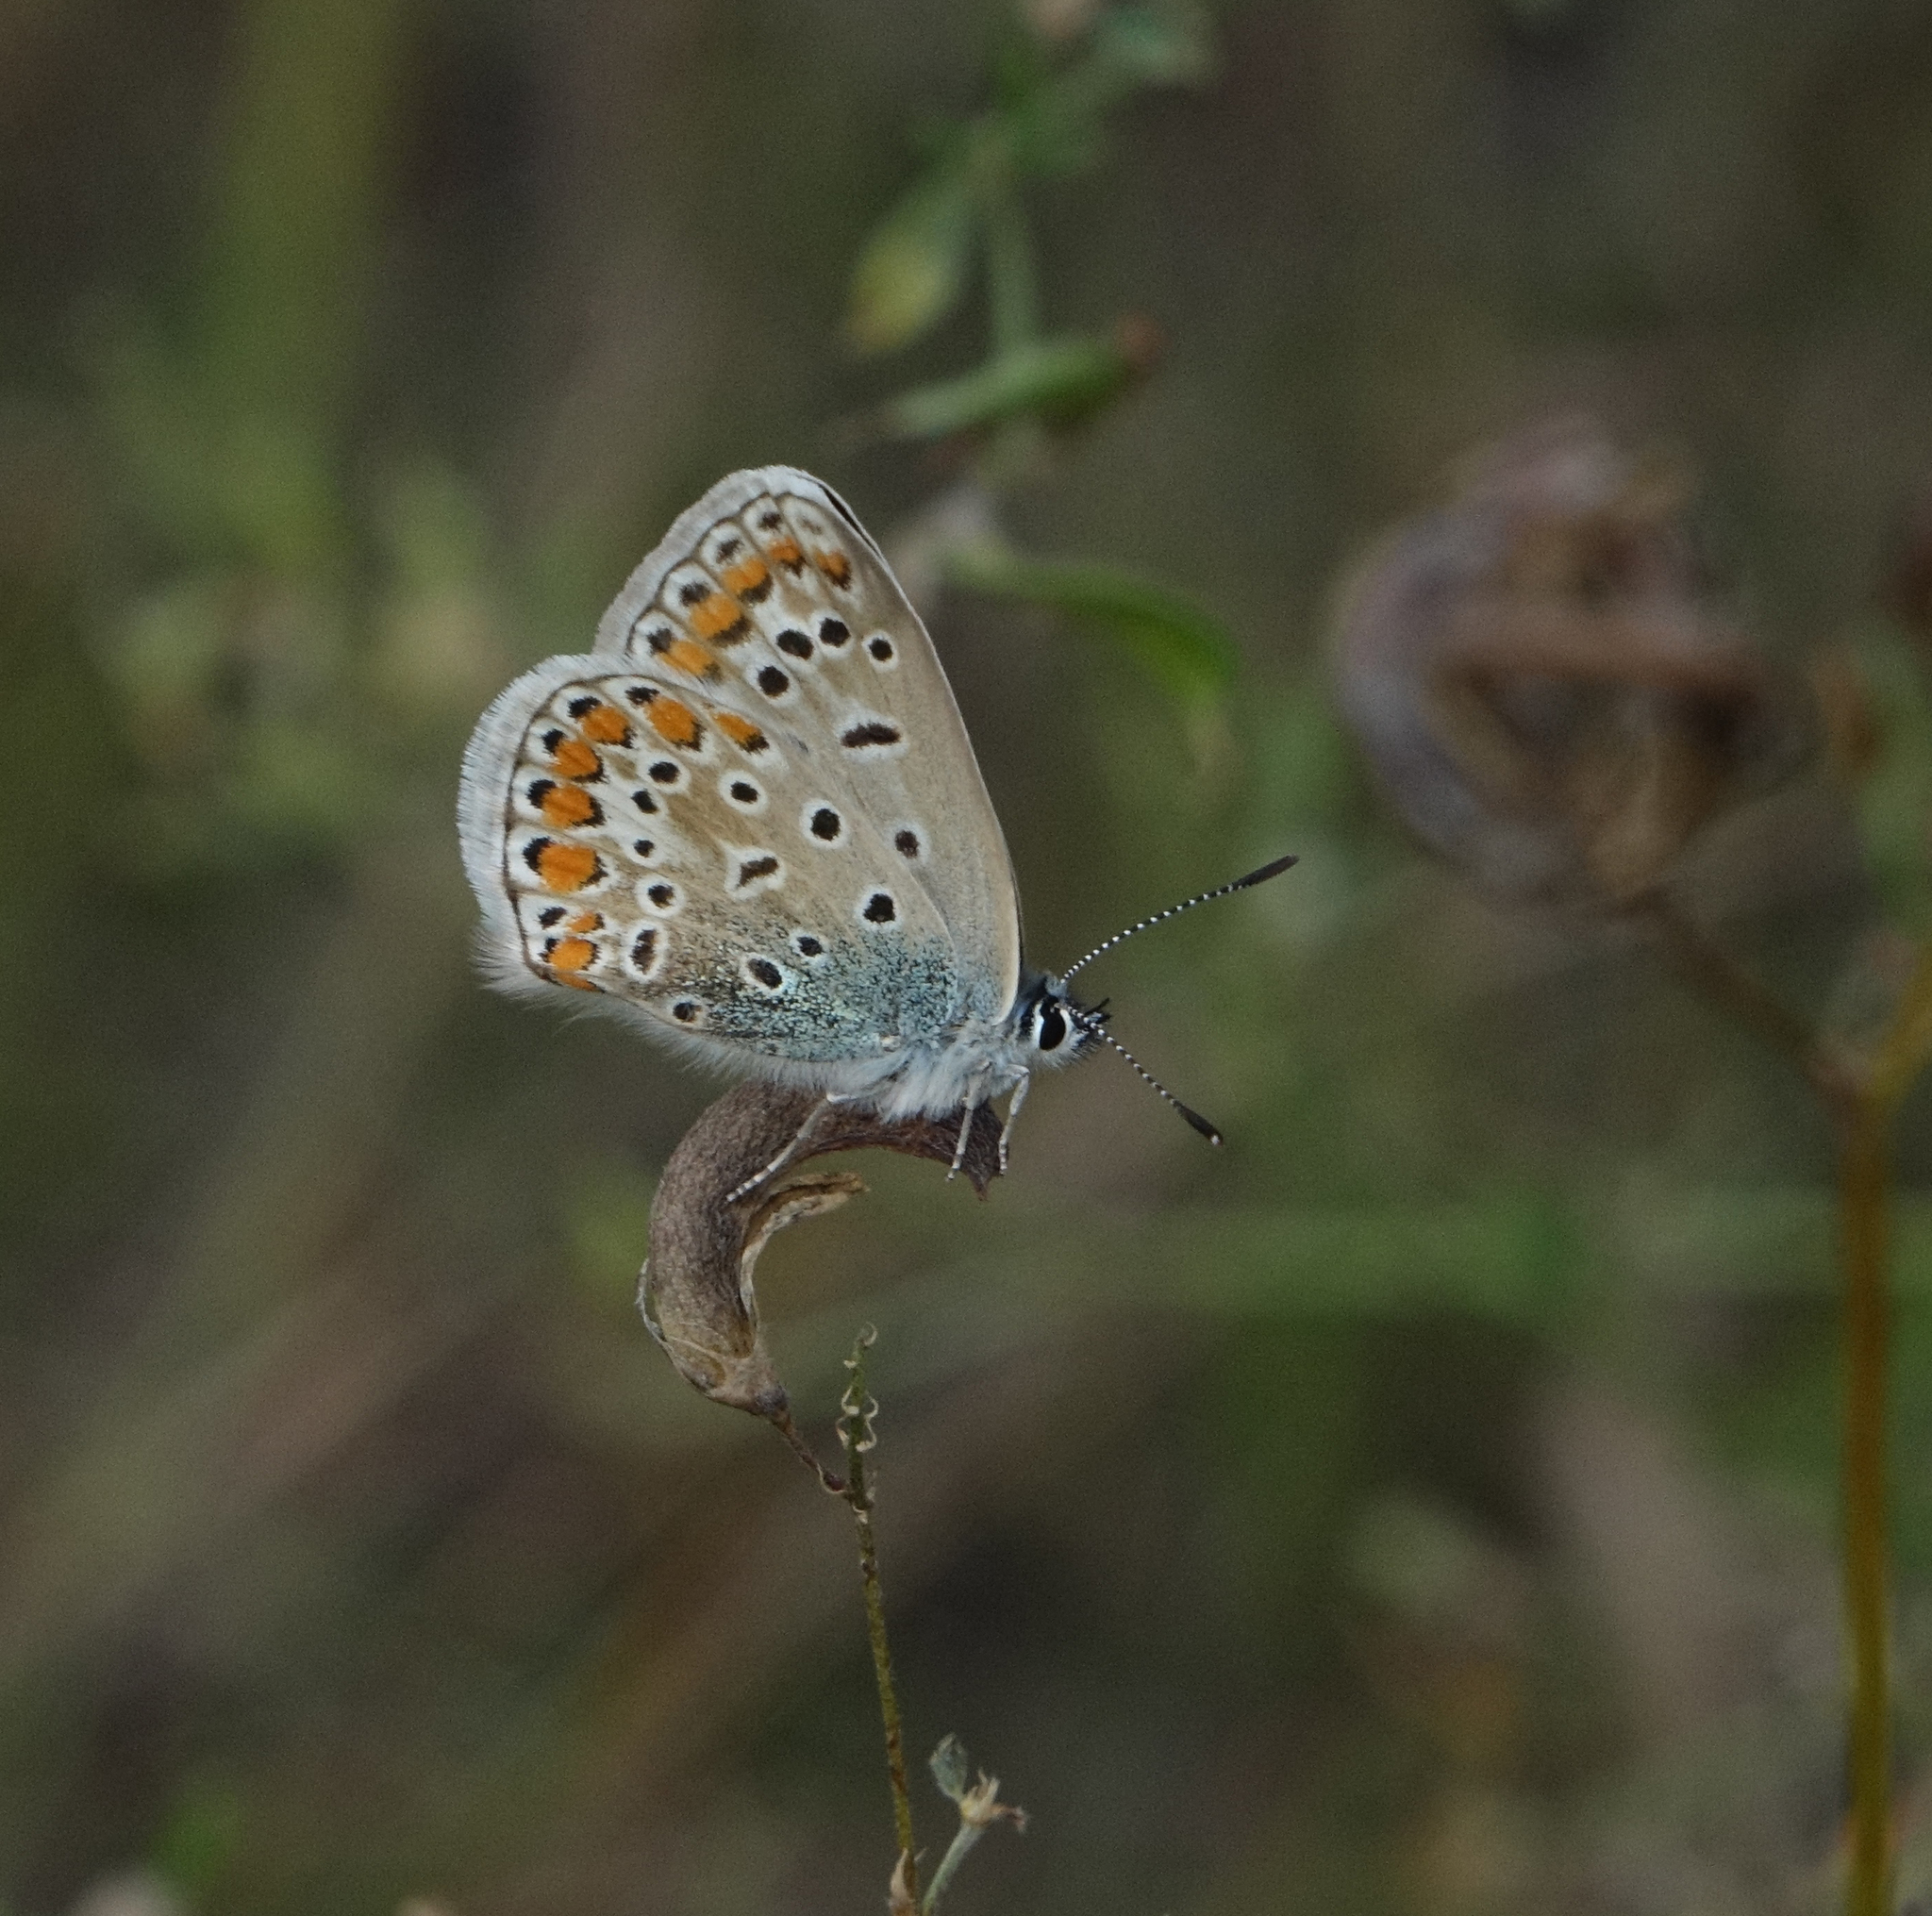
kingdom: Animalia
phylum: Arthropoda
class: Insecta
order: Lepidoptera
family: Lycaenidae
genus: Polyommatus
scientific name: Polyommatus icarus
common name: Common blue
